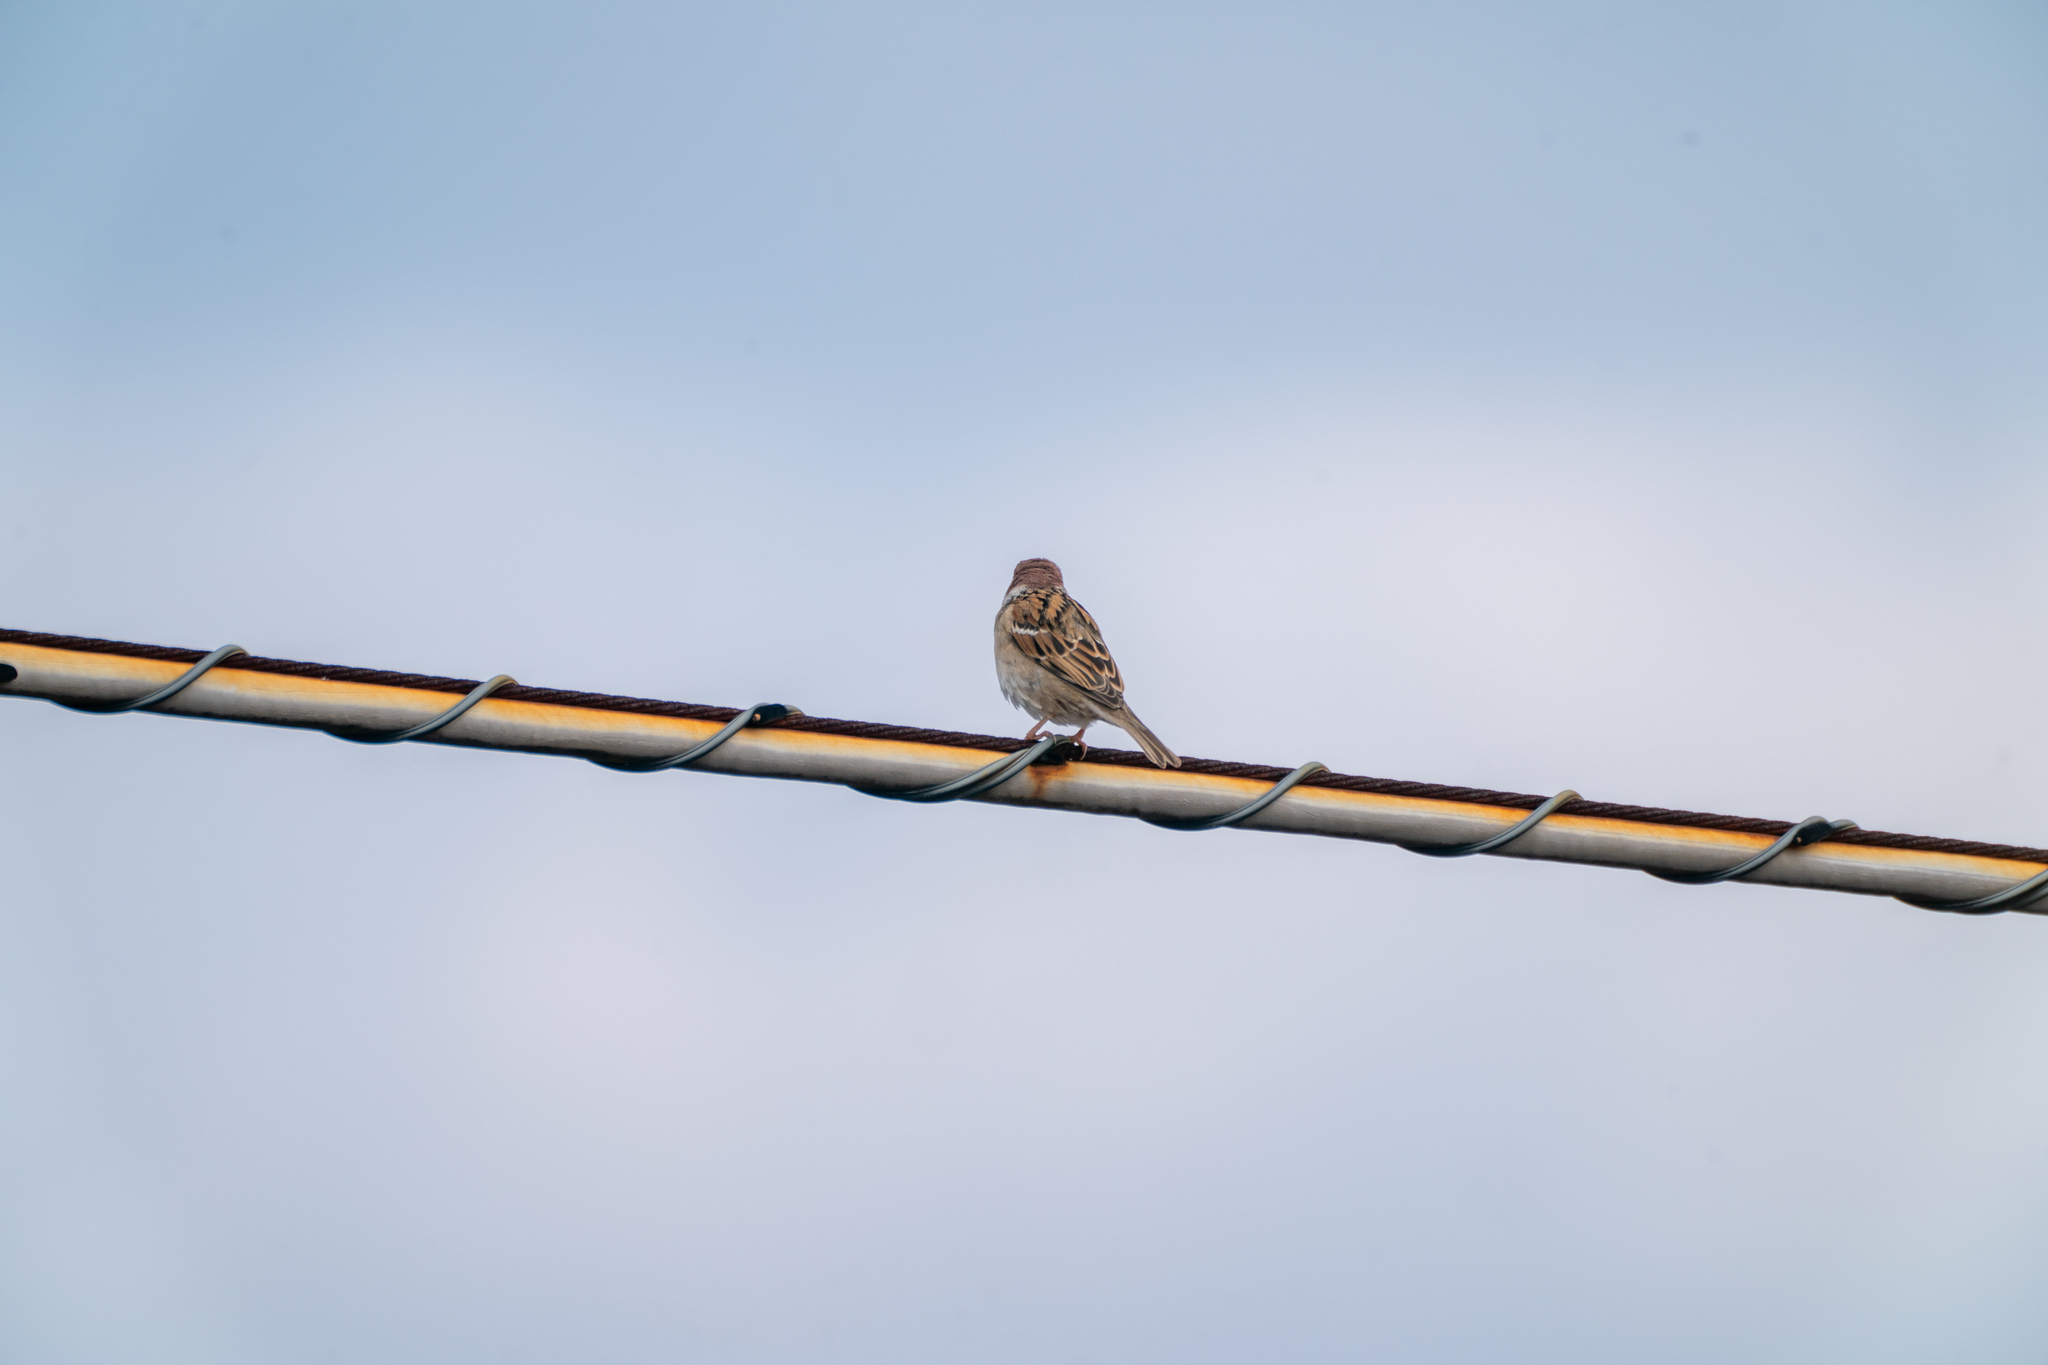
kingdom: Animalia
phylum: Chordata
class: Aves
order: Passeriformes
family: Passeridae
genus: Passer
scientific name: Passer montanus
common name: Eurasian tree sparrow
